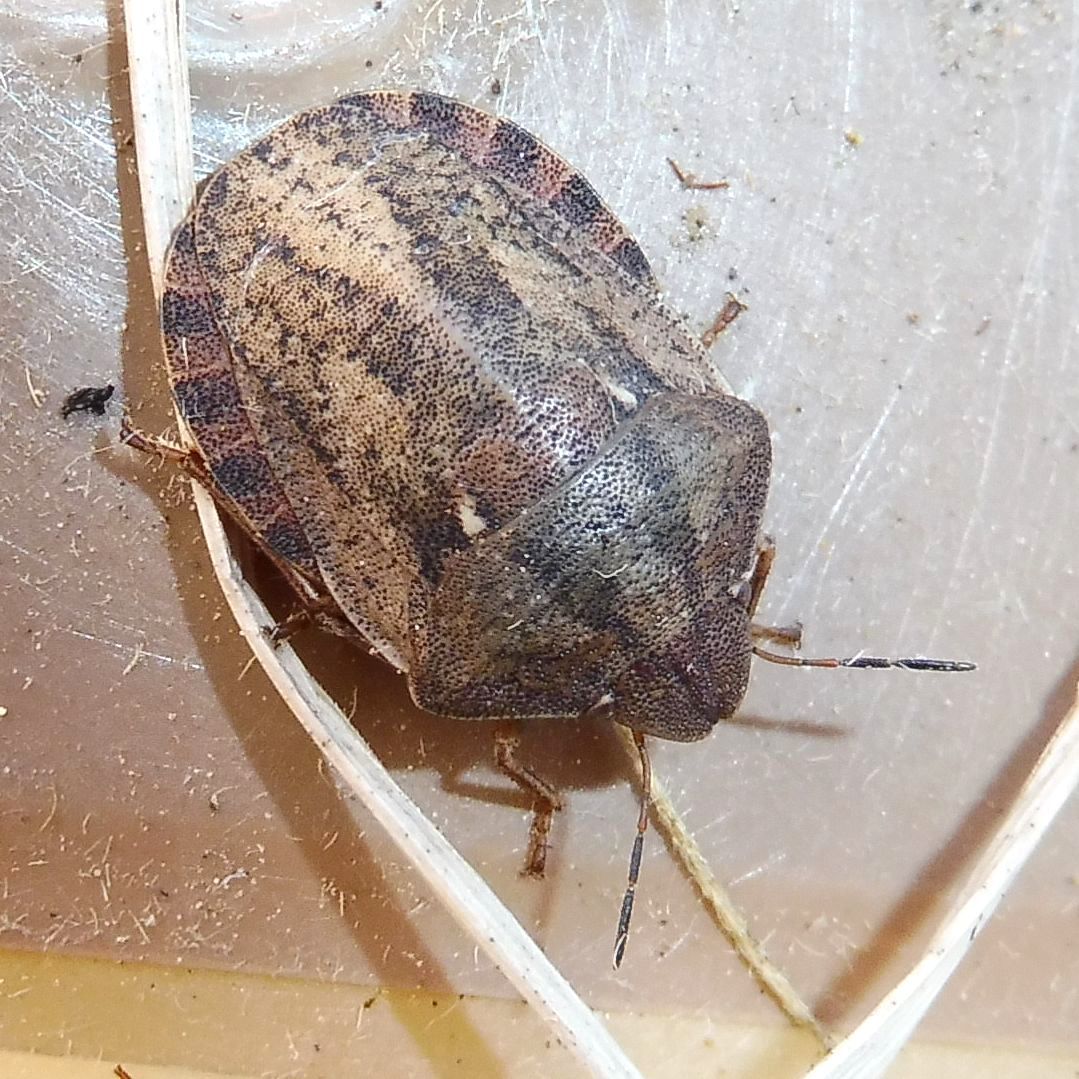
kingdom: Animalia
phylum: Arthropoda
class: Insecta
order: Hemiptera
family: Scutelleridae
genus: Eurygaster
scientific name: Eurygaster testudinaria
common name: Tortoise bug
